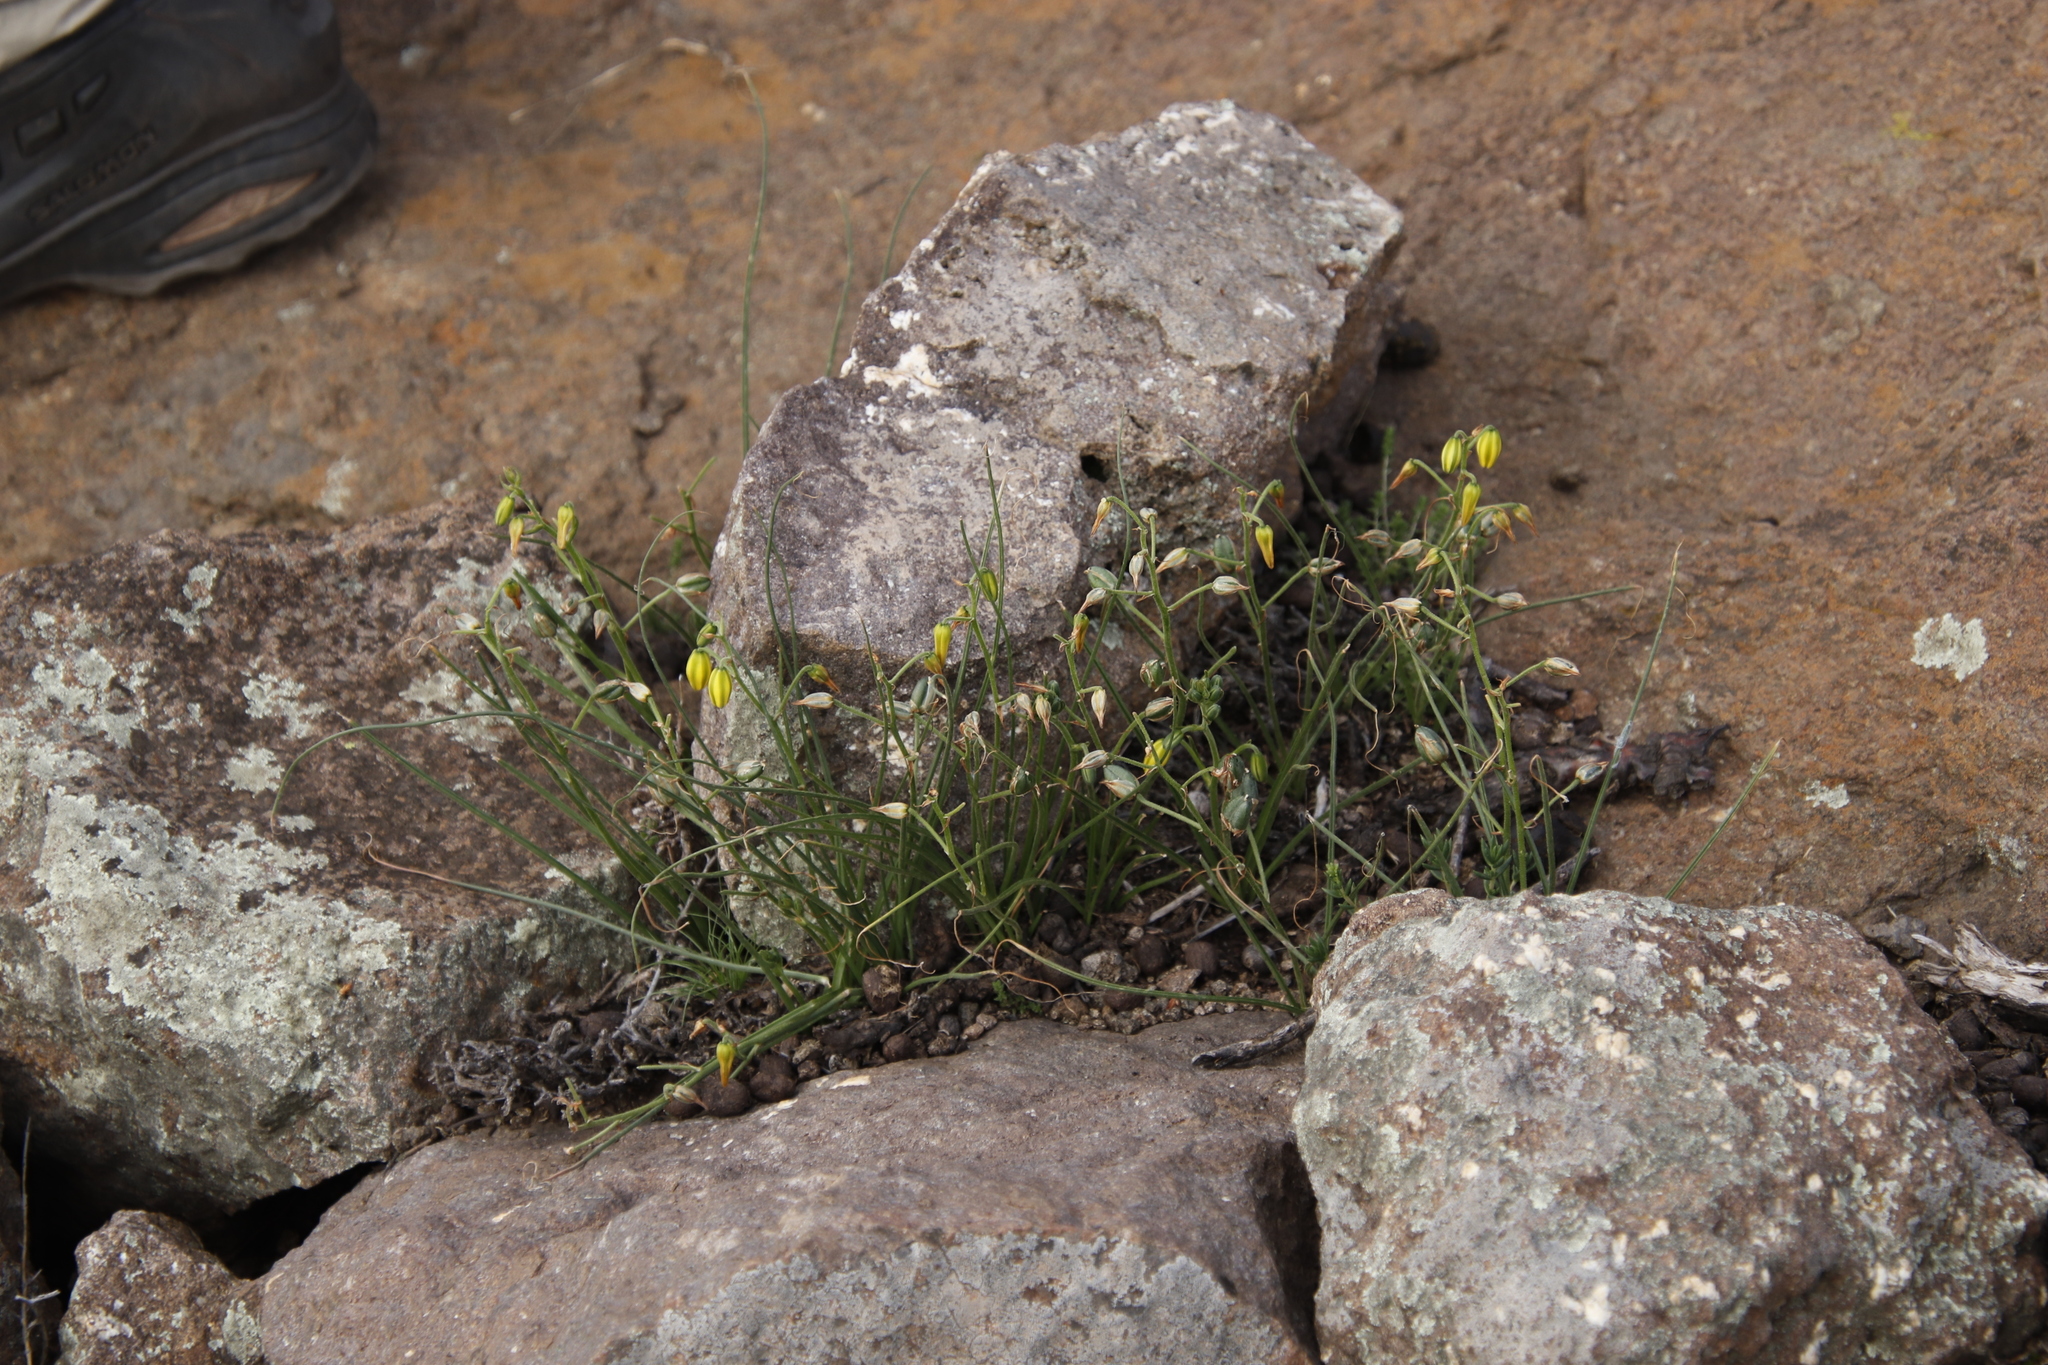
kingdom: Plantae
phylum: Tracheophyta
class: Liliopsida
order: Asparagales
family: Asparagaceae
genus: Albuca
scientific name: Albuca shawii
